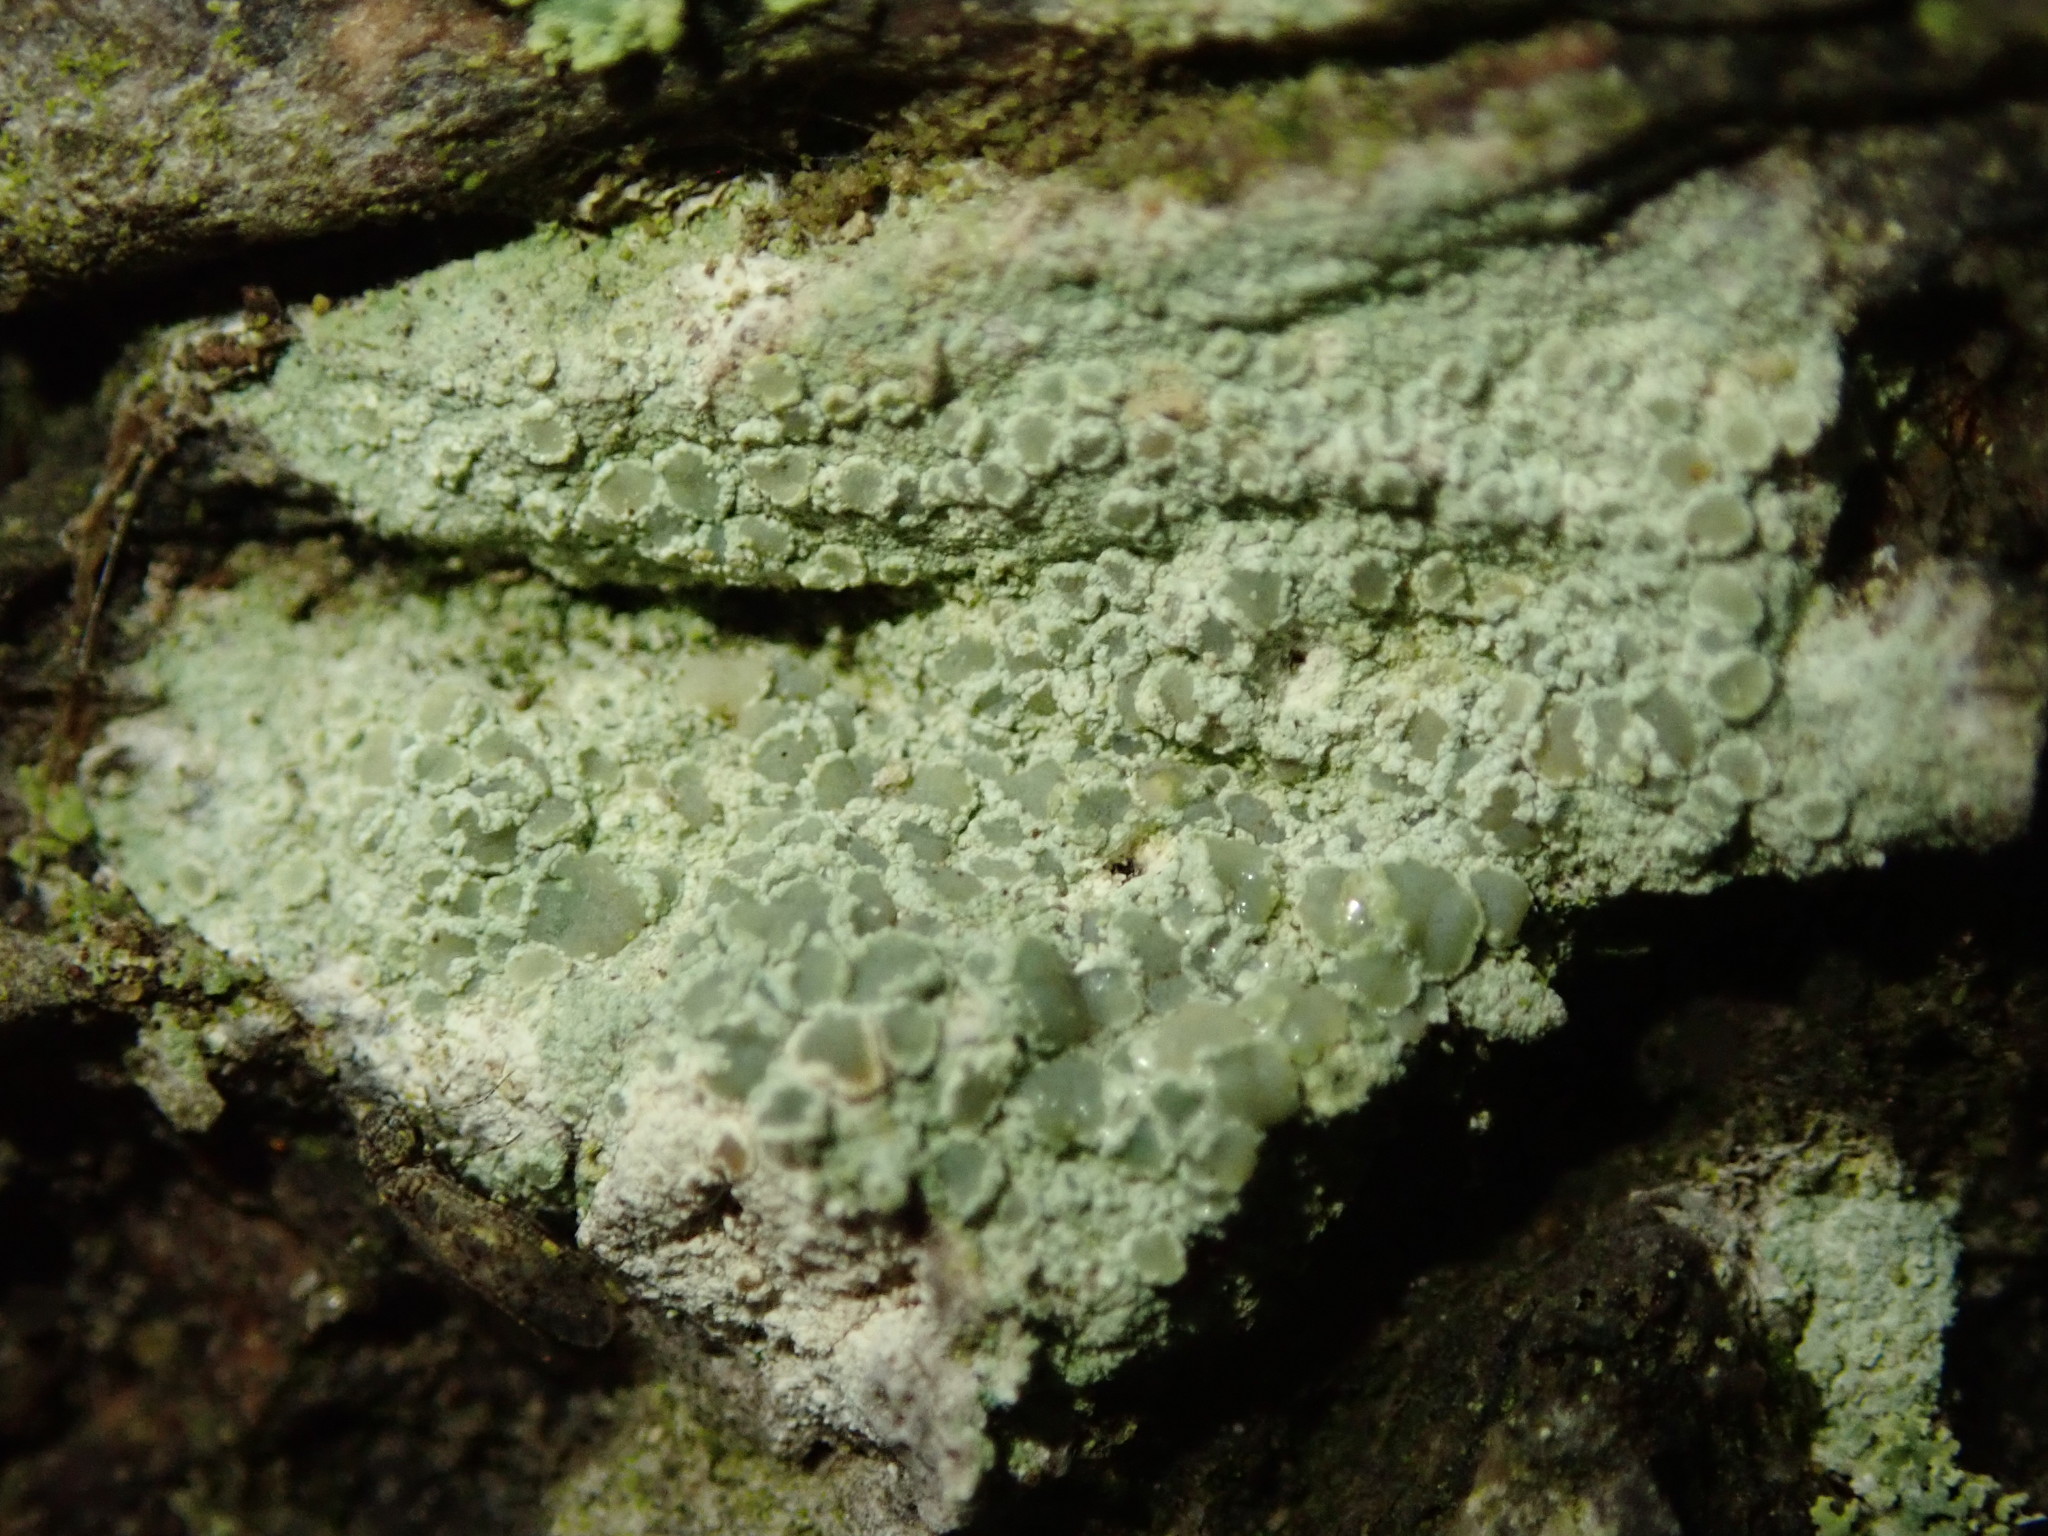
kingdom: Fungi
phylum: Ascomycota
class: Lecanoromycetes
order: Lecanorales
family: Lecanoraceae
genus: Lecanora
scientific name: Lecanora strobilina
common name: Mealy rim-lichen
